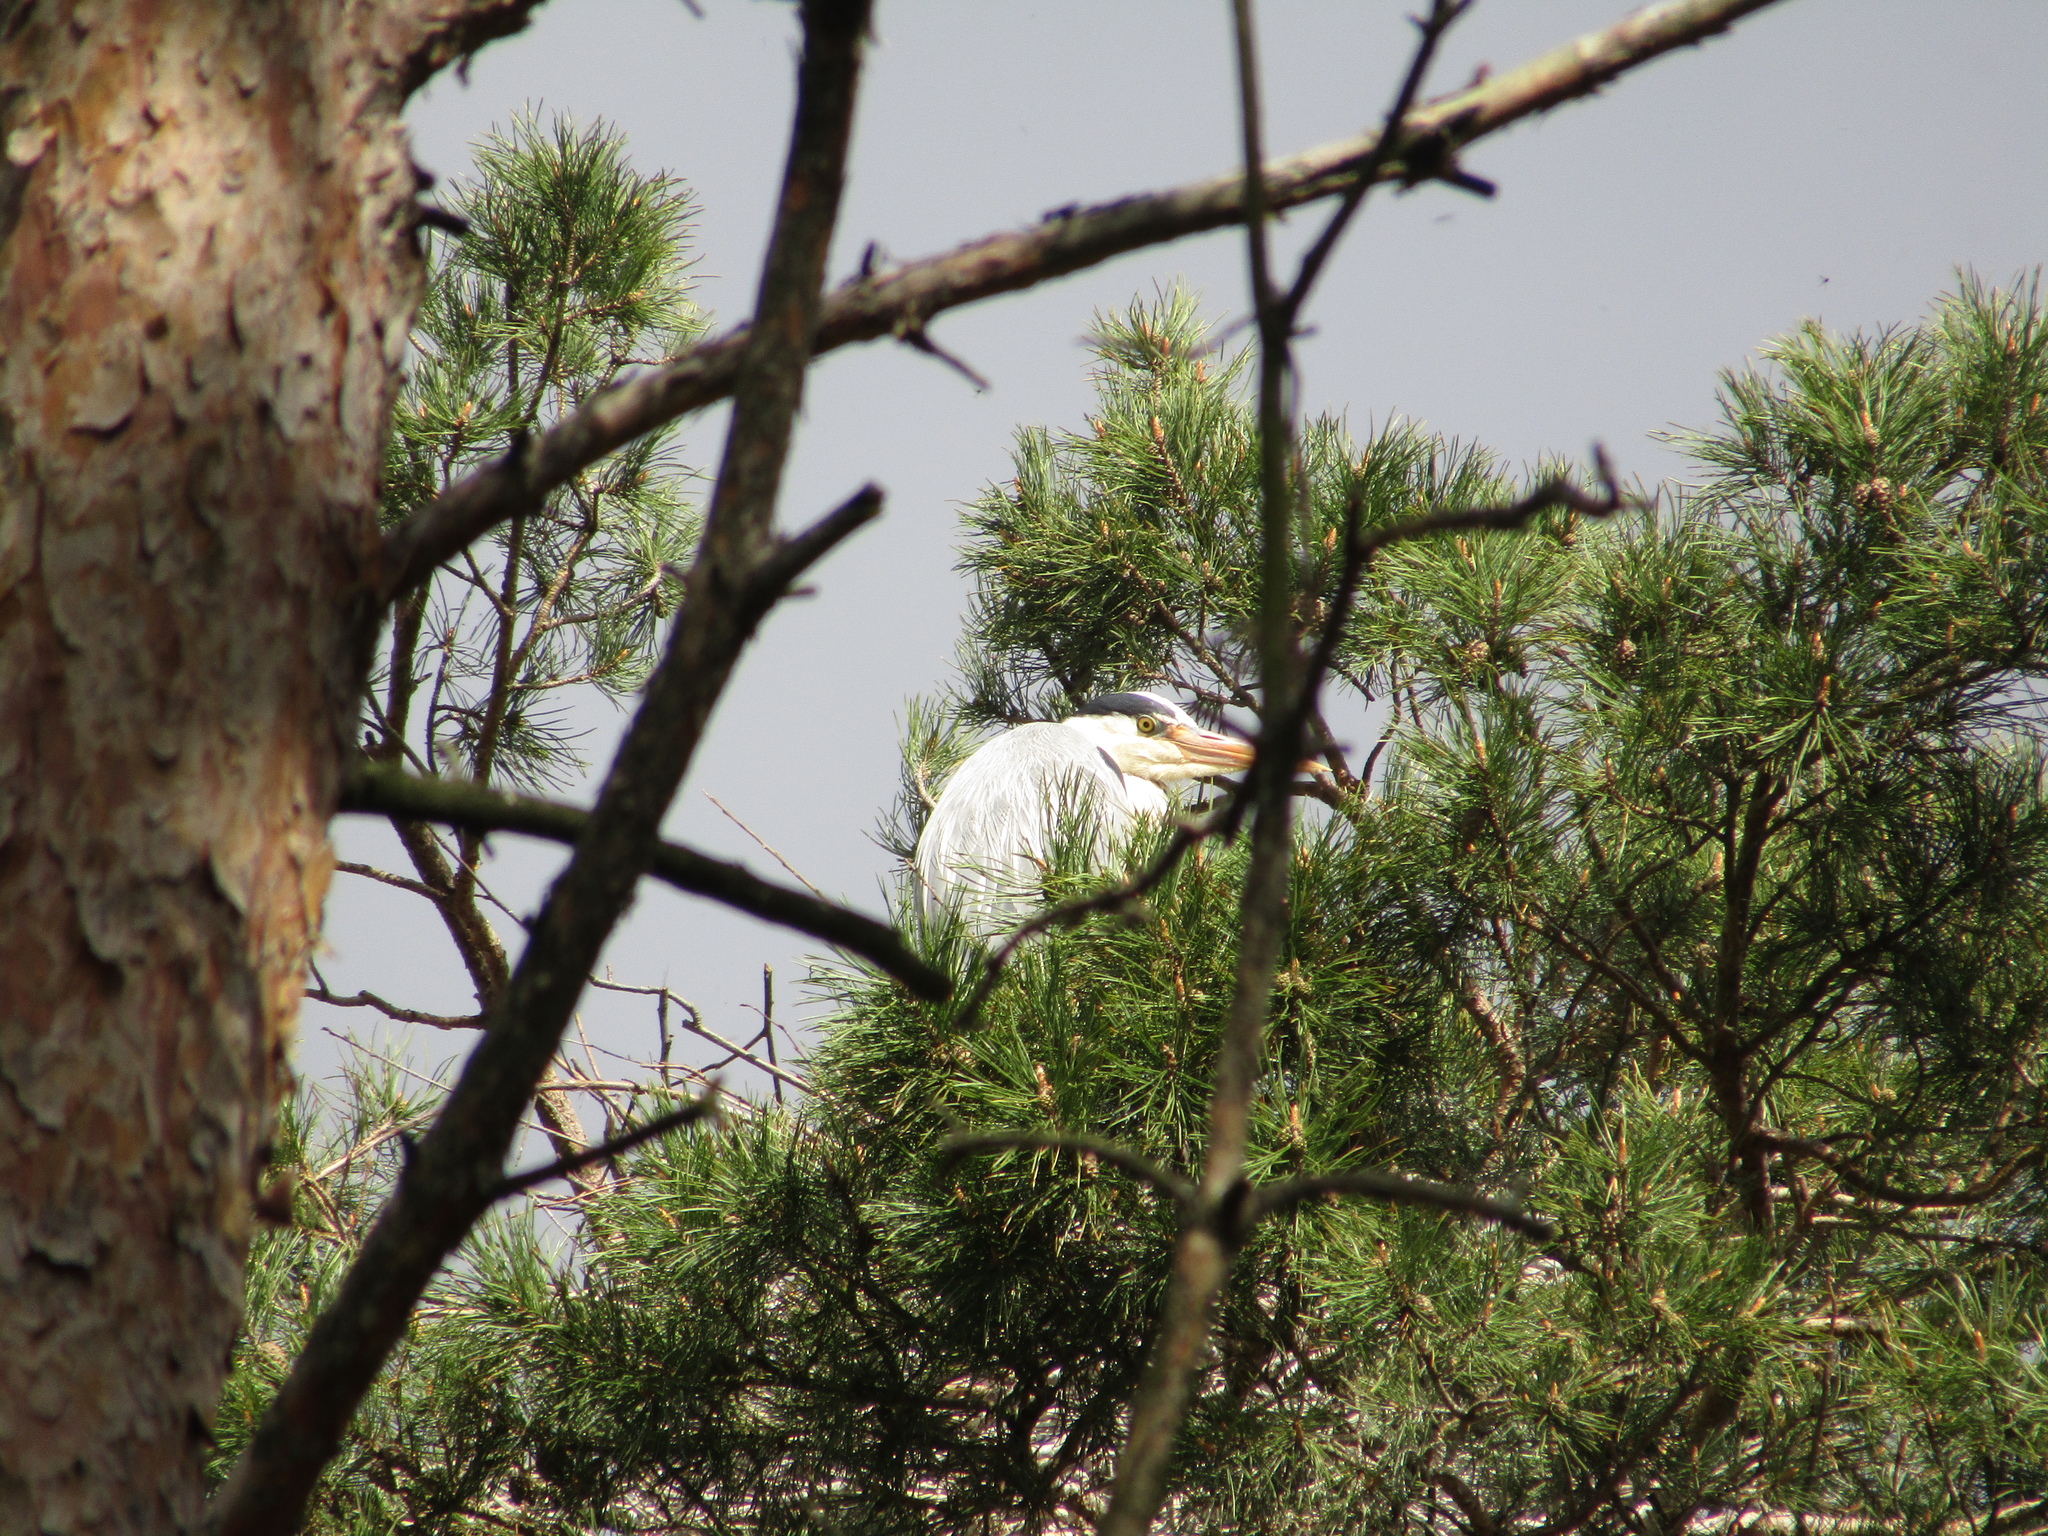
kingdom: Animalia
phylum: Chordata
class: Aves
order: Pelecaniformes
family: Ardeidae
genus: Ardea
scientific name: Ardea cinerea
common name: Grey heron
